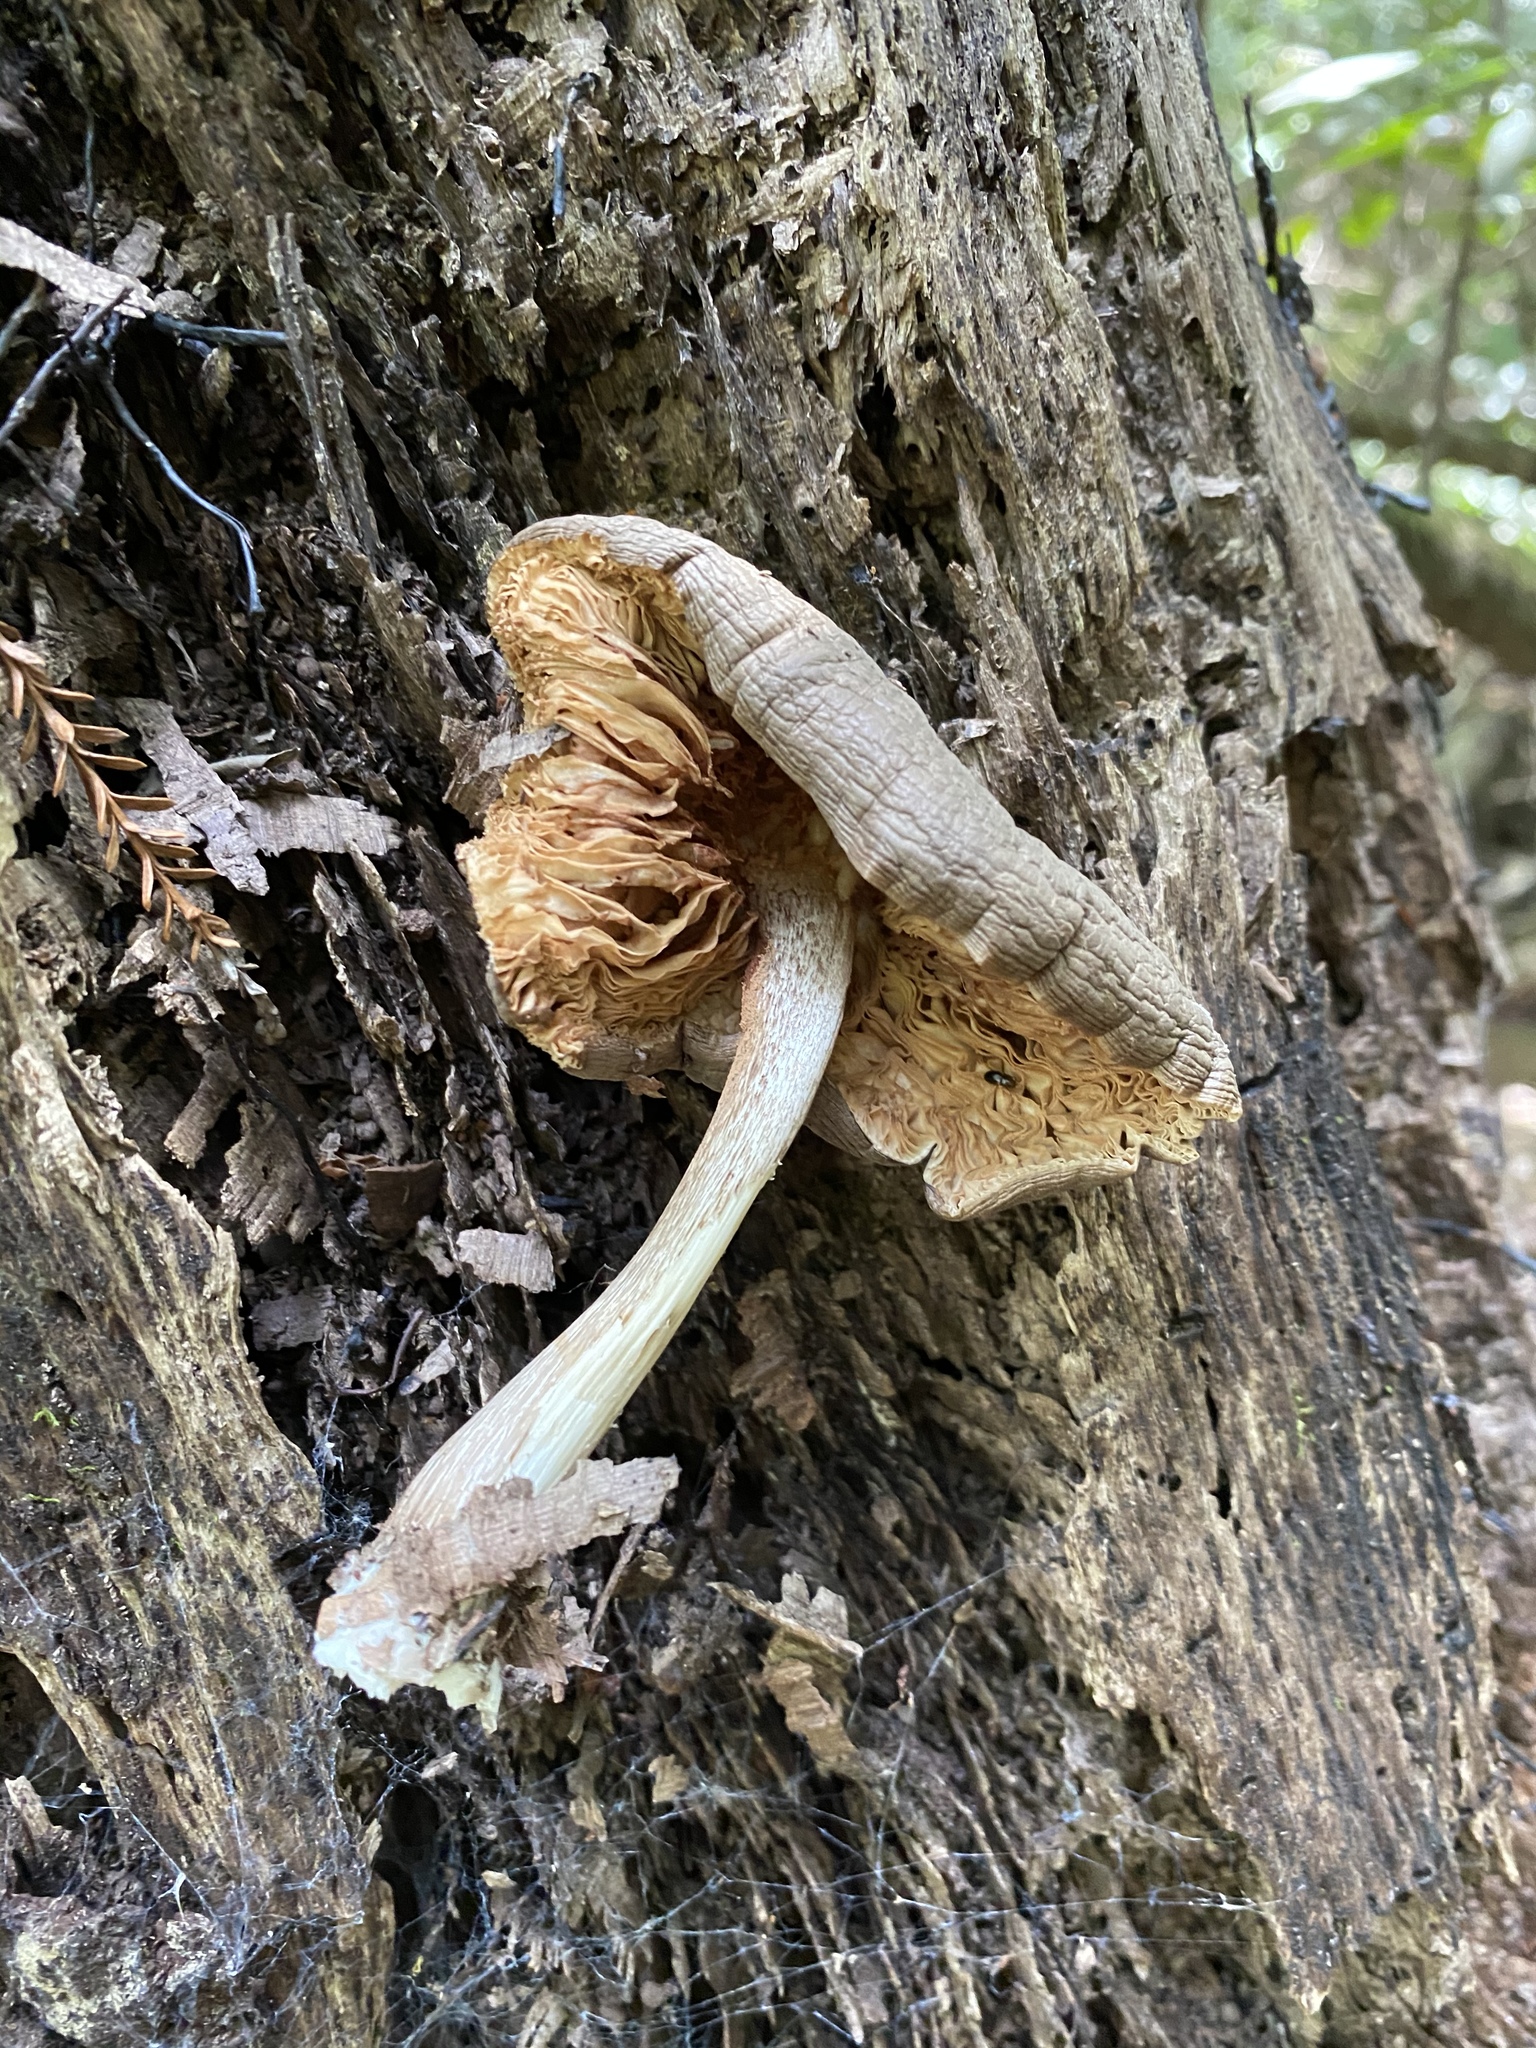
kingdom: Fungi
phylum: Basidiomycota
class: Agaricomycetes
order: Agaricales
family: Pluteaceae
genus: Pluteus
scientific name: Pluteus exilis
